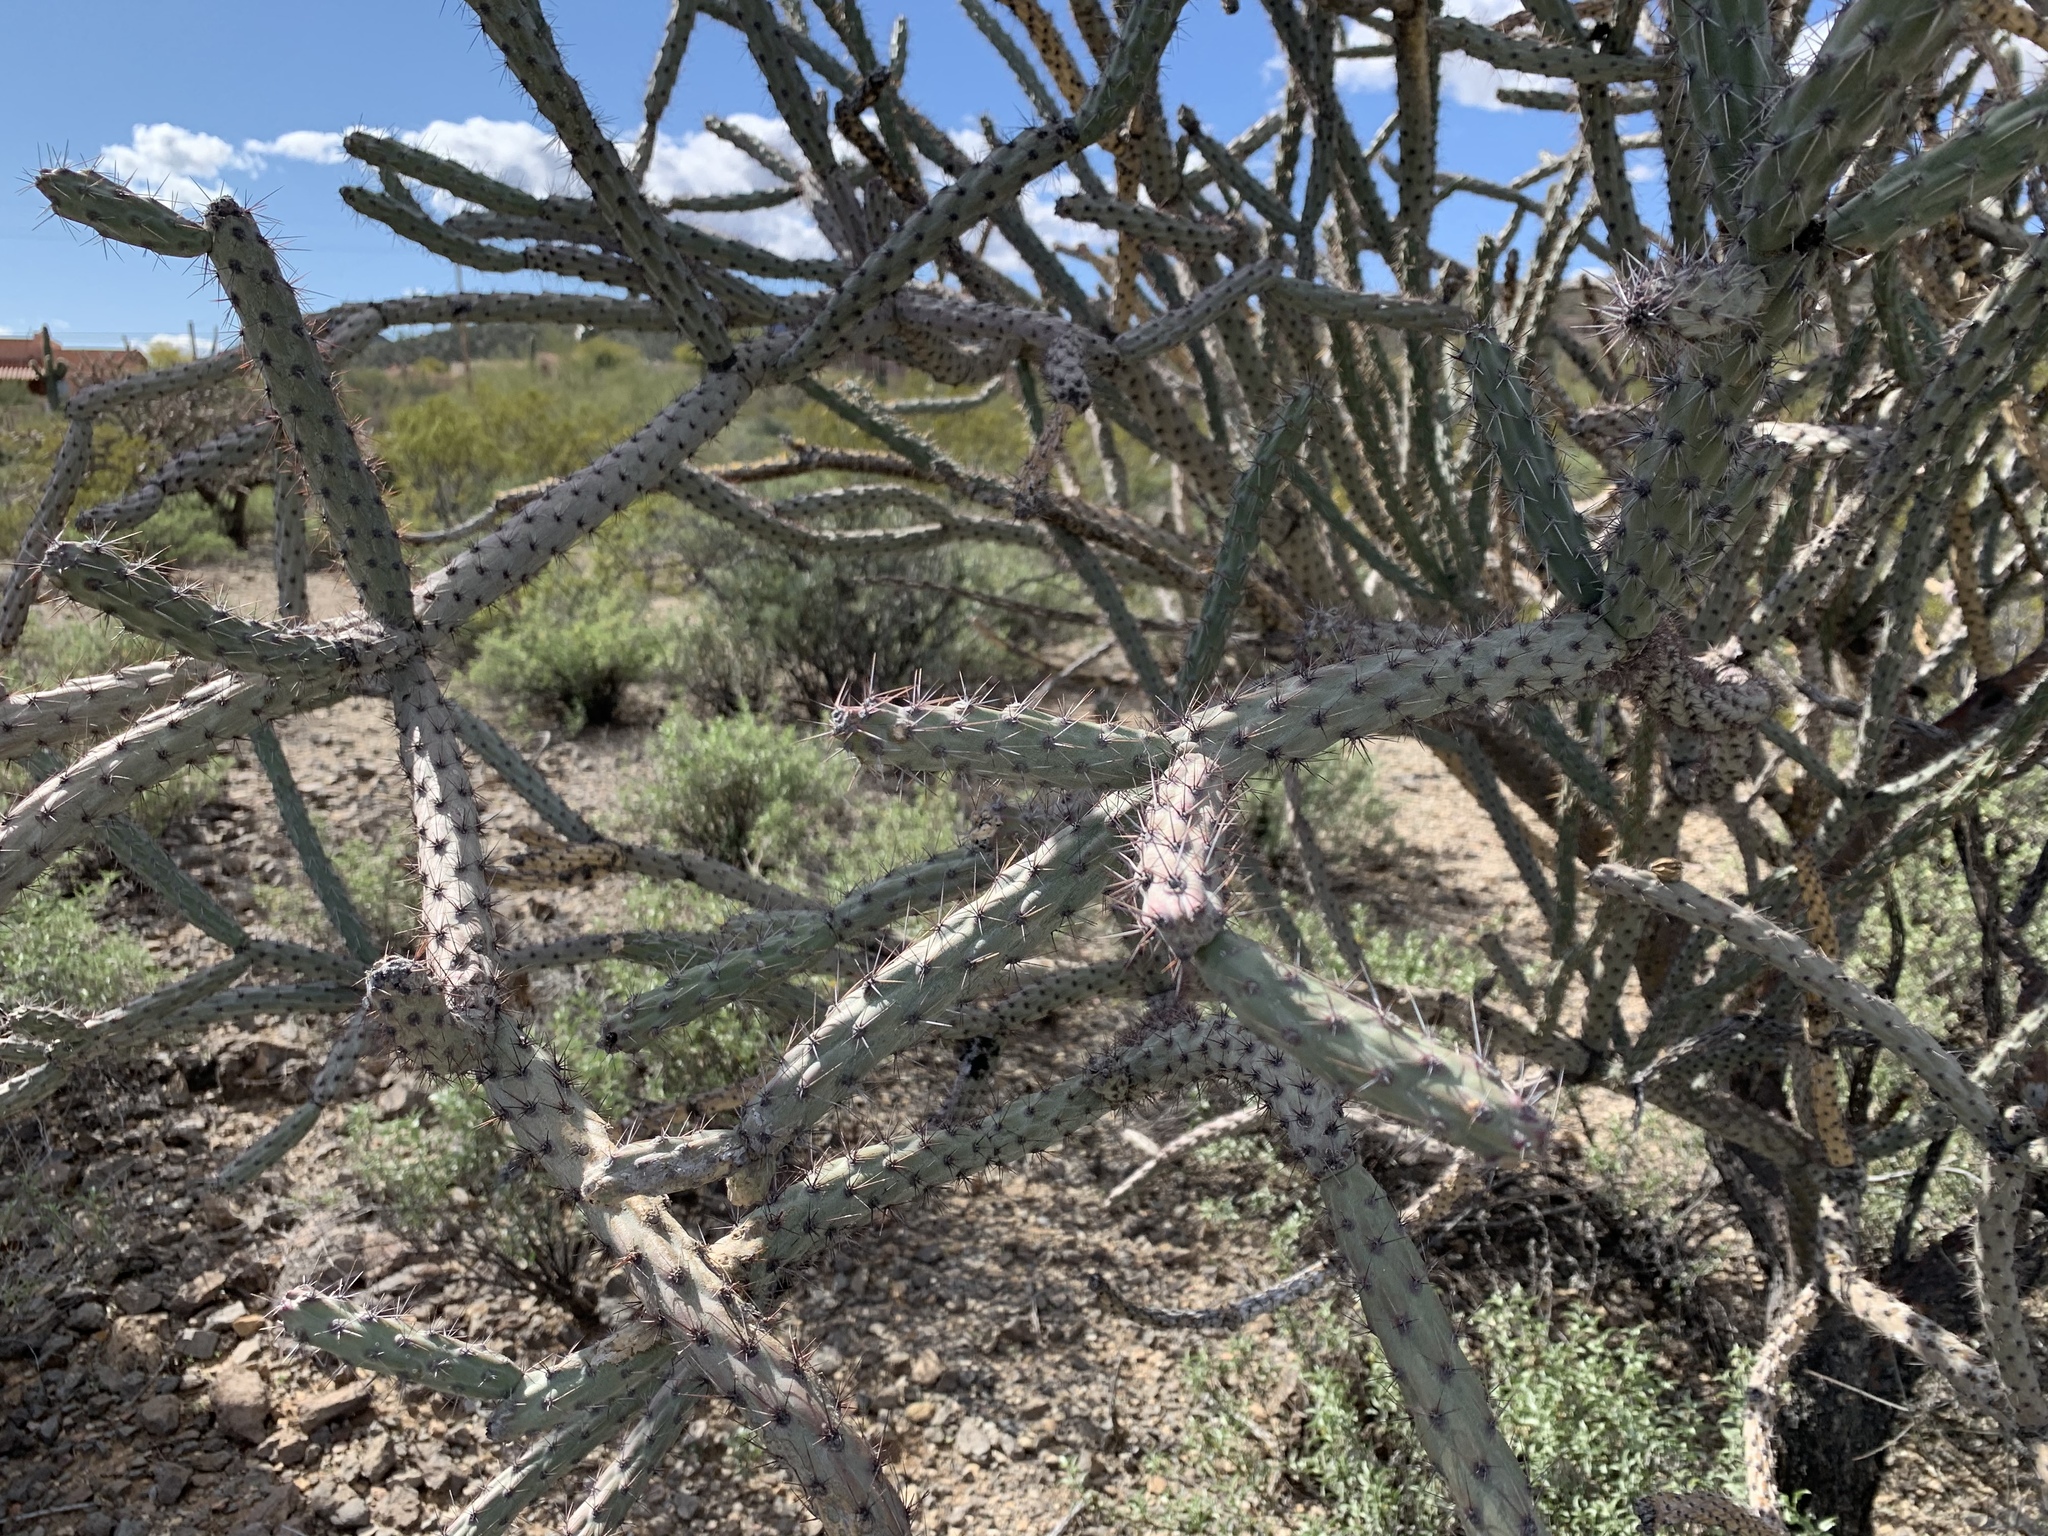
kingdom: Plantae
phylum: Tracheophyta
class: Magnoliopsida
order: Caryophyllales
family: Cactaceae
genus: Cylindropuntia
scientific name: Cylindropuntia thurberi
